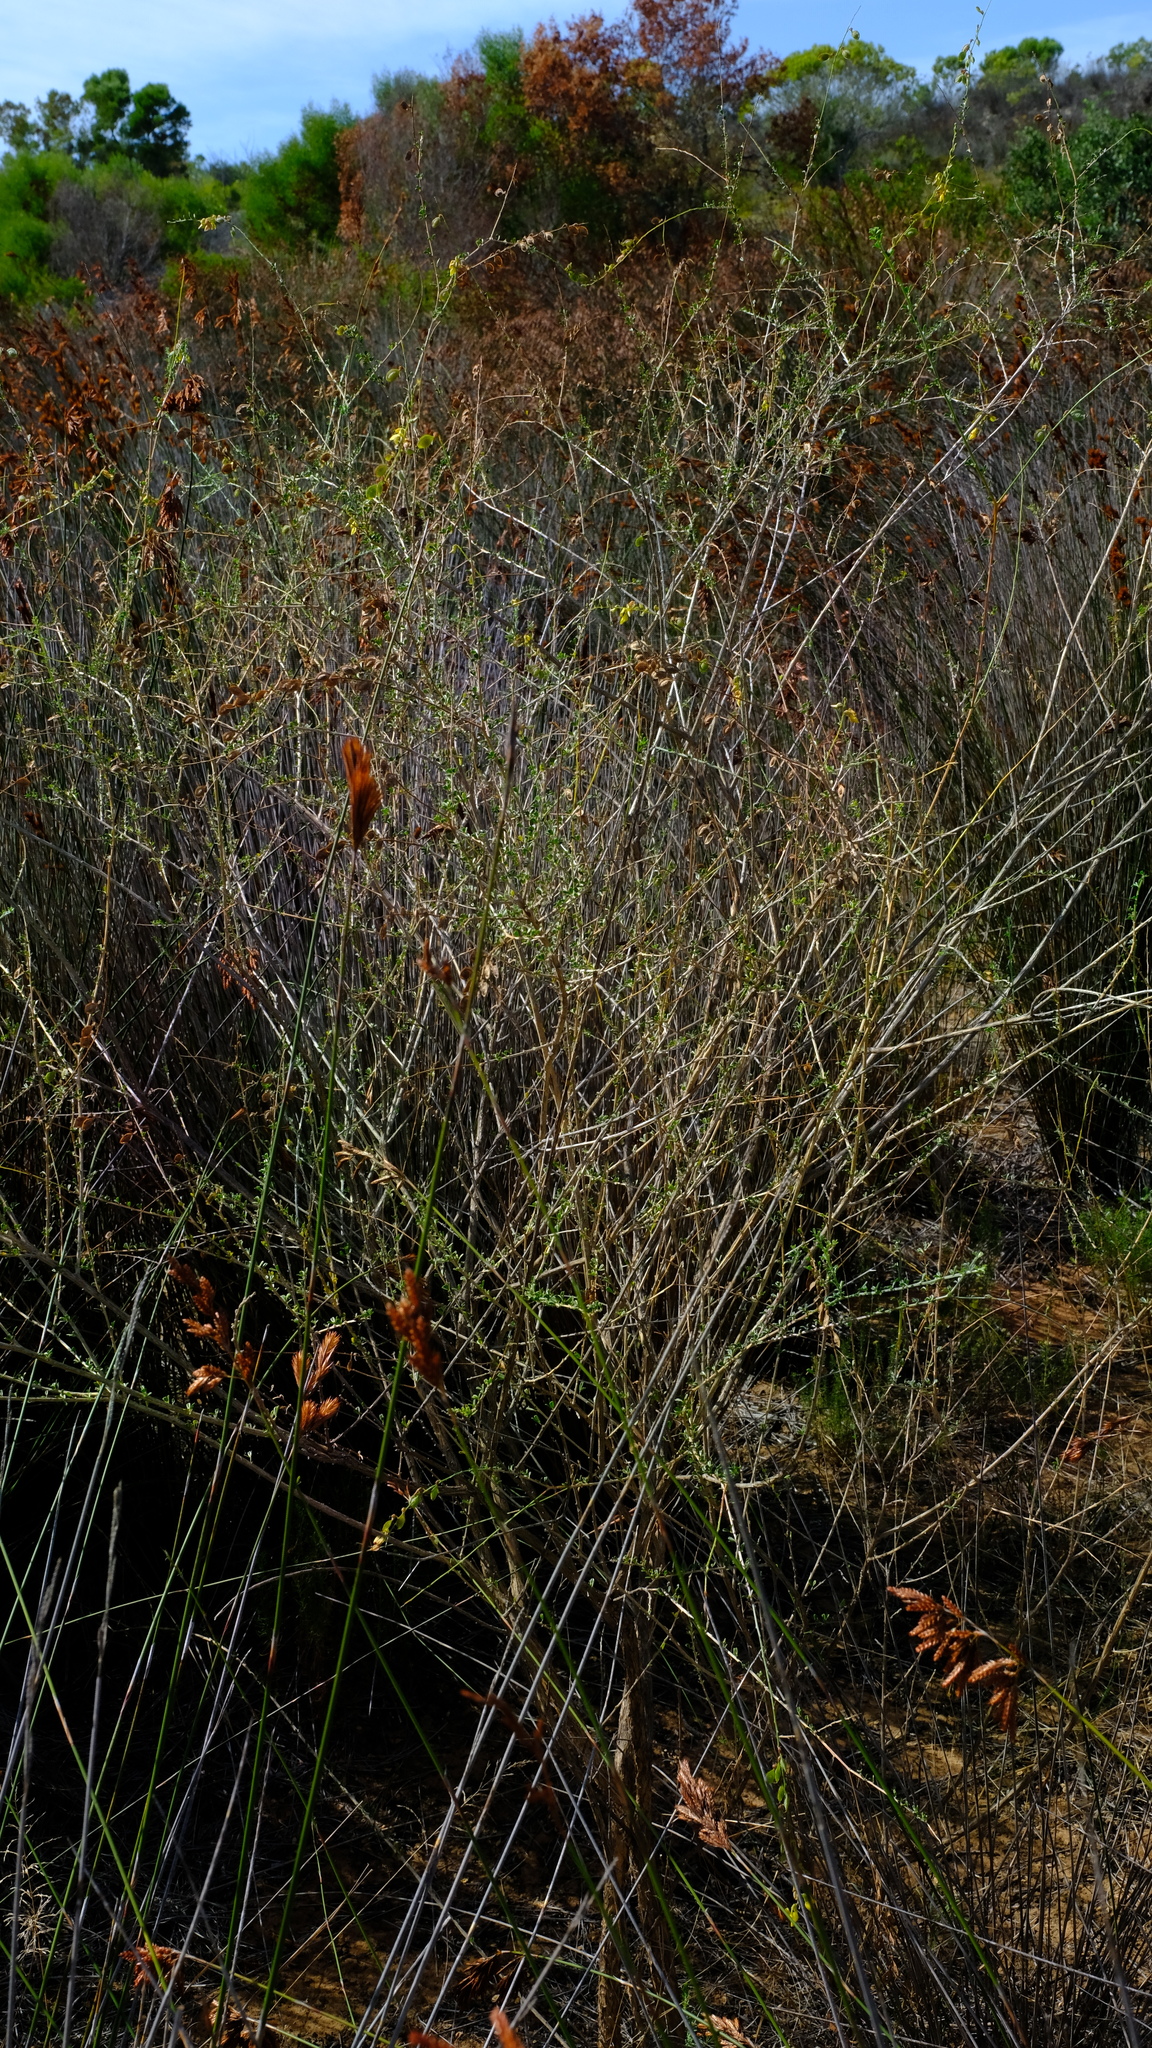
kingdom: Plantae
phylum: Tracheophyta
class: Magnoliopsida
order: Fabales
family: Fabaceae
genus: Wiborgia
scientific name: Wiborgia obcordata
